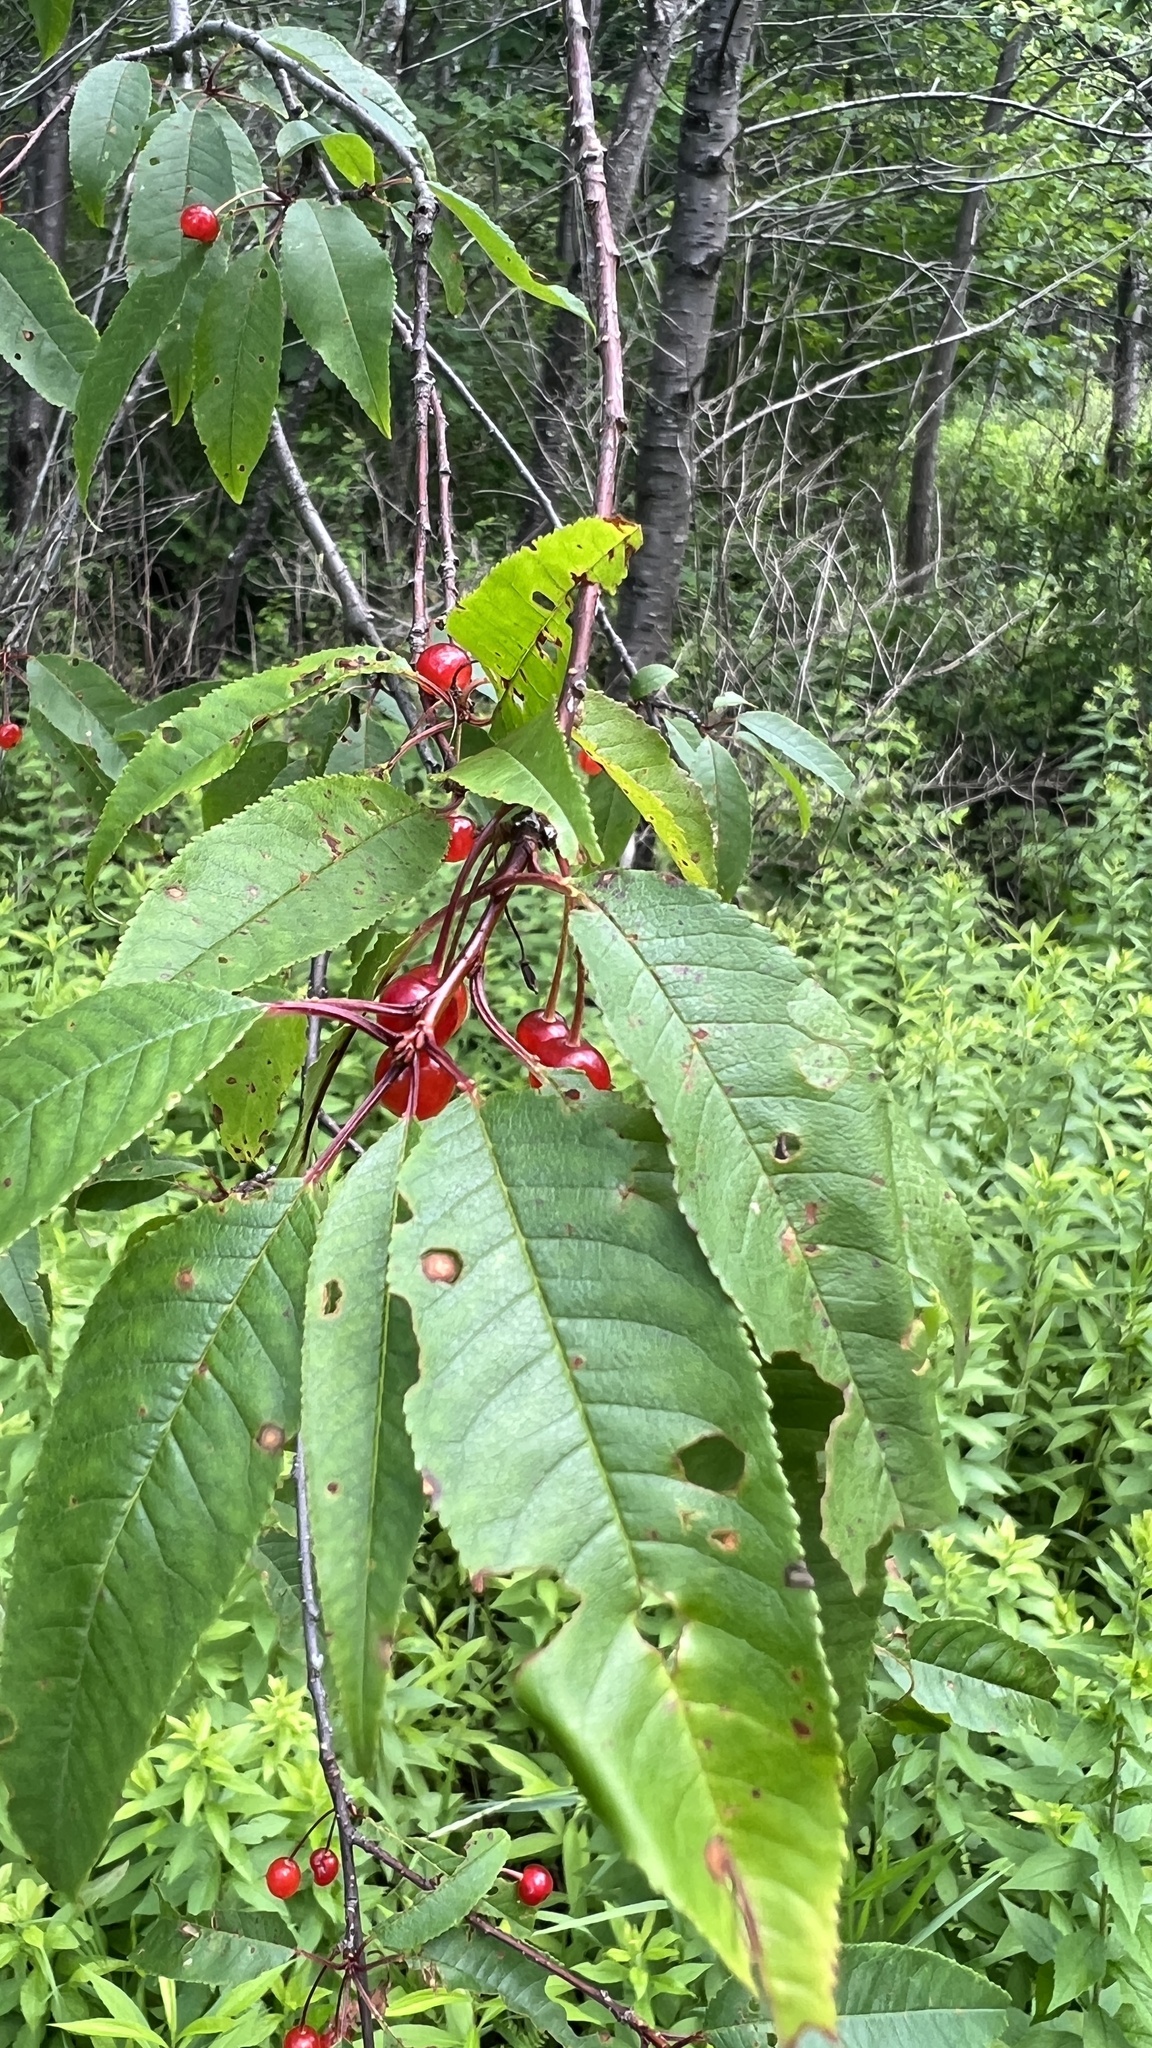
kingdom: Plantae
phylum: Tracheophyta
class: Magnoliopsida
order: Rosales
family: Rosaceae
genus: Prunus
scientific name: Prunus pensylvanica
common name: Pin cherry
